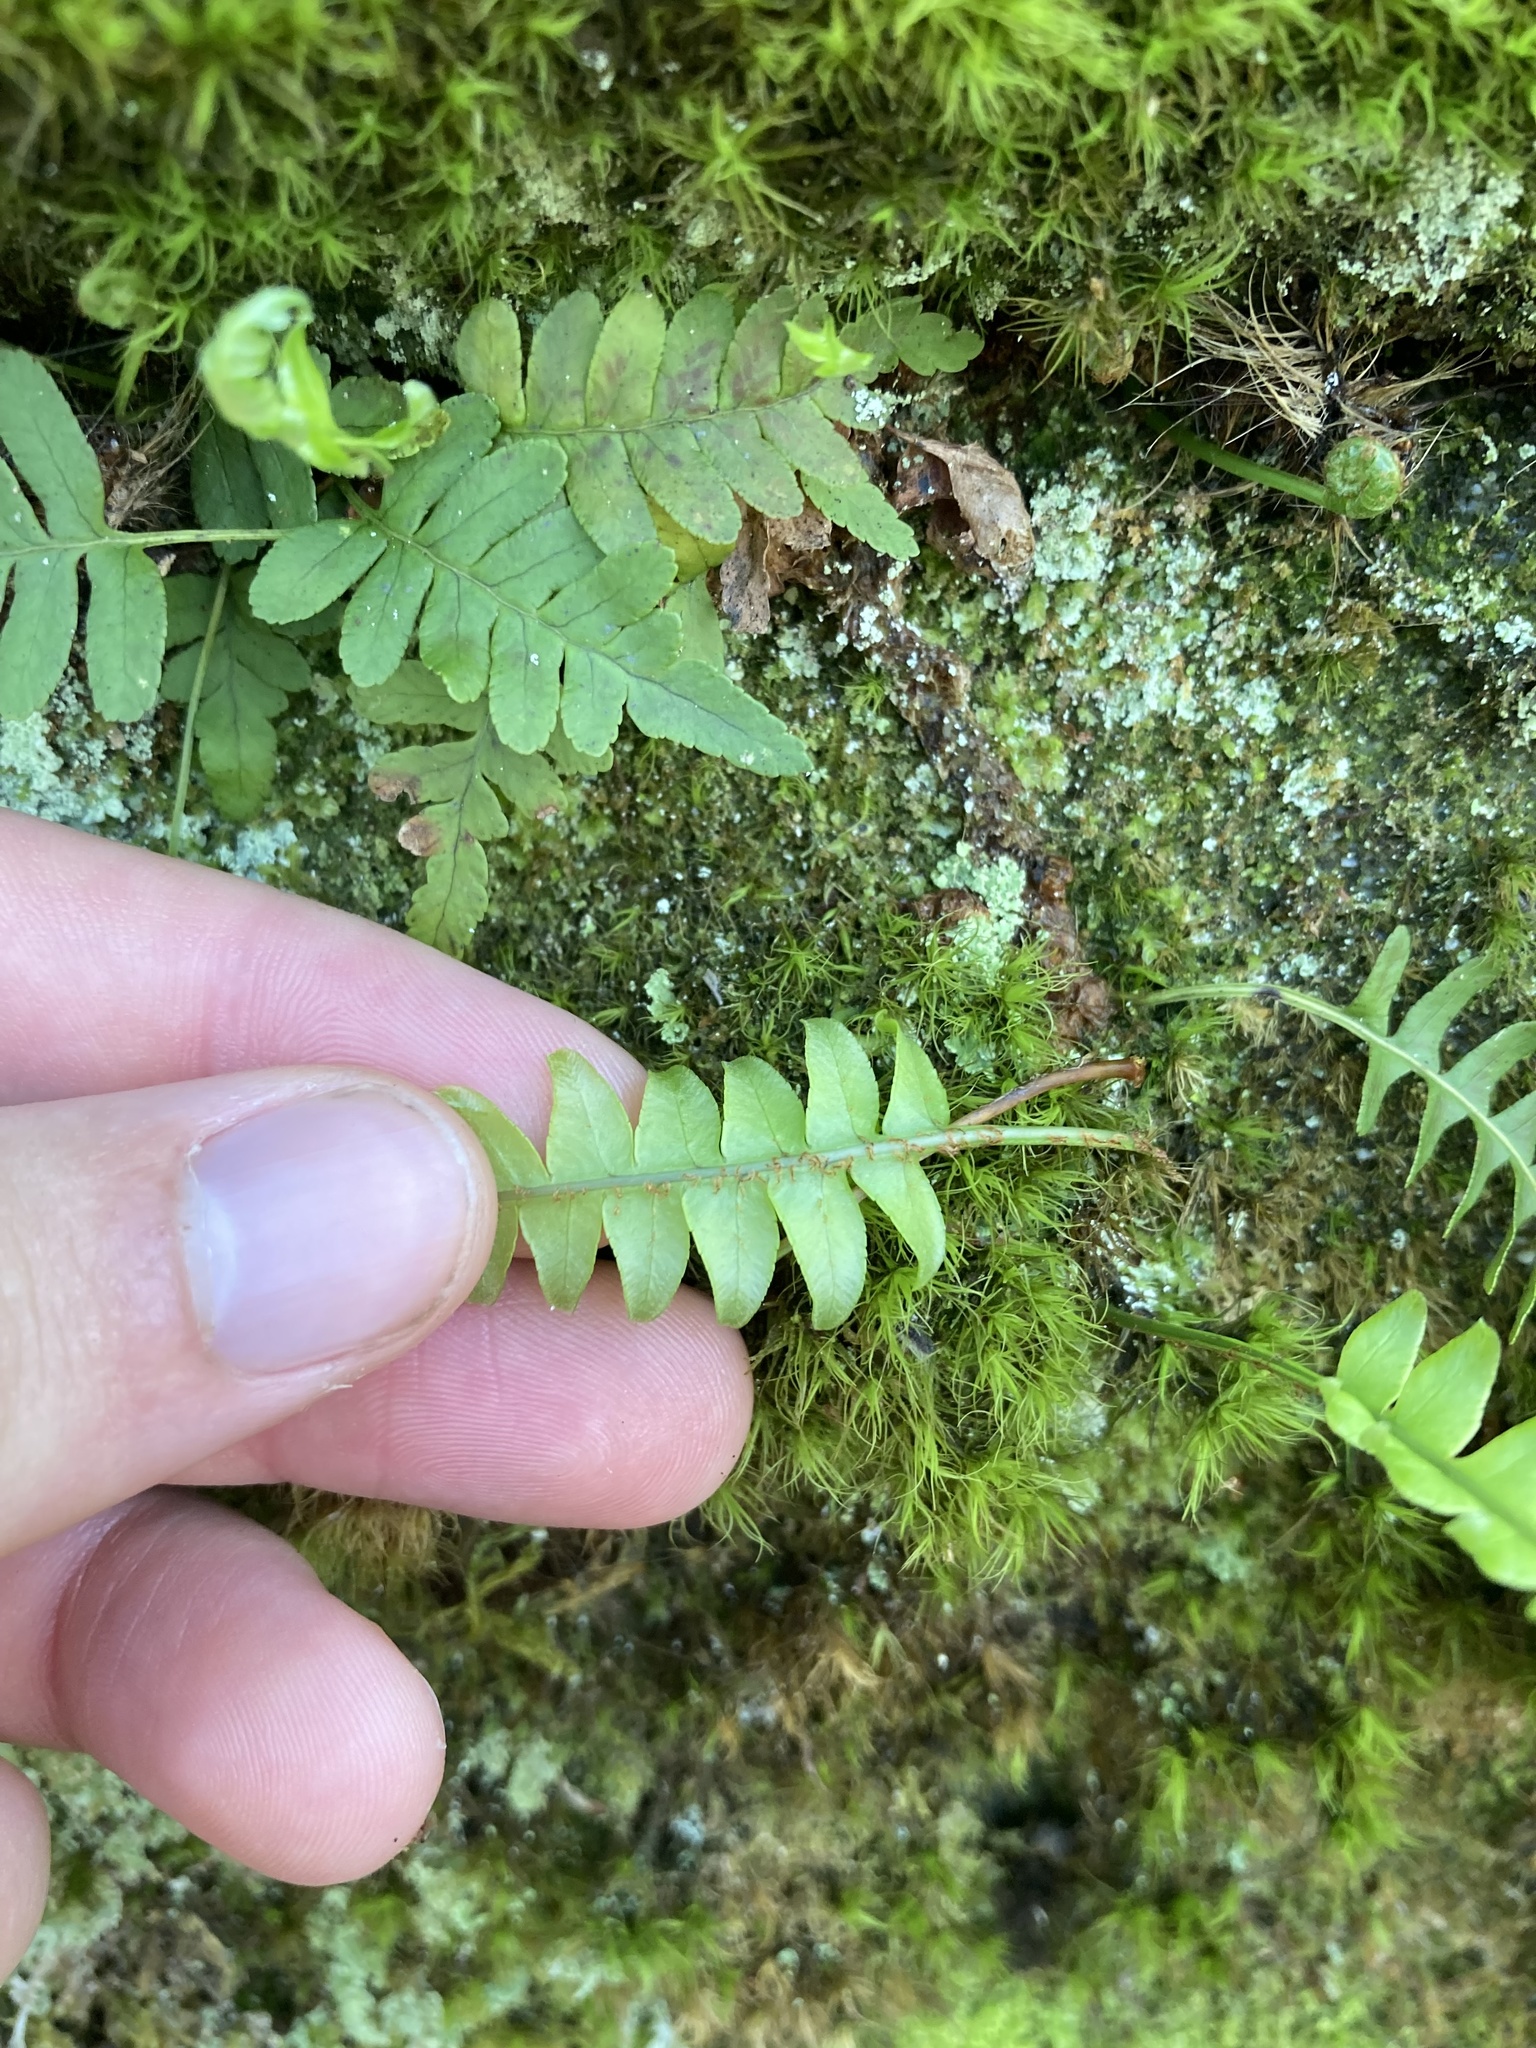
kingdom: Plantae
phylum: Tracheophyta
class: Polypodiopsida
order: Polypodiales
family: Polypodiaceae
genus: Polypodium
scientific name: Polypodium virginianum
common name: American wall fern
